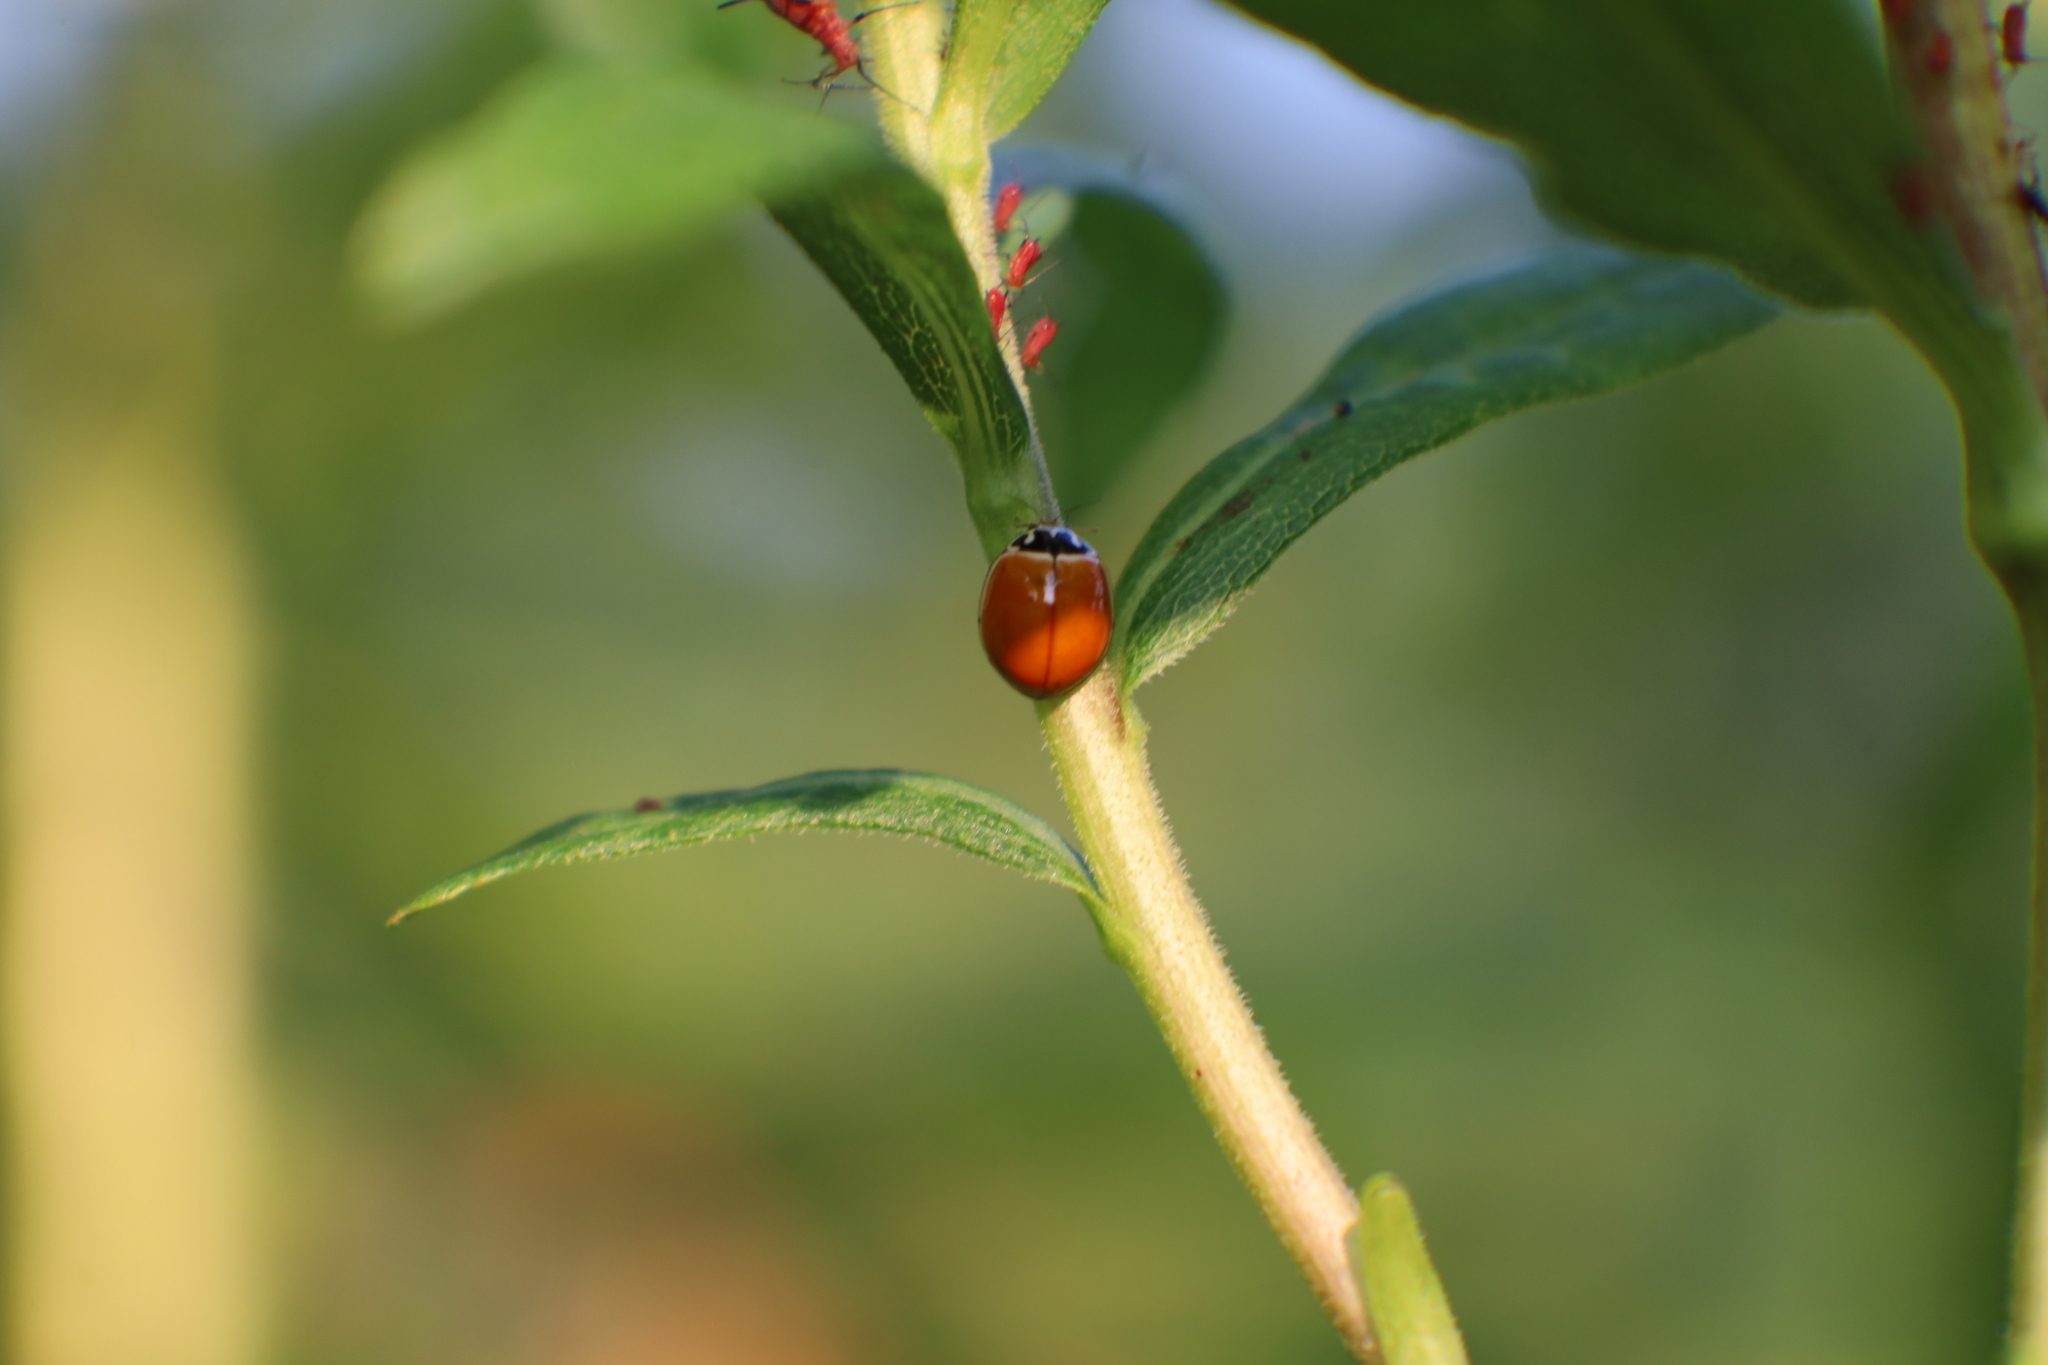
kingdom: Animalia
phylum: Arthropoda
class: Insecta
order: Coleoptera
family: Coccinellidae
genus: Cycloneda
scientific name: Cycloneda munda
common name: Polished lady beetle
